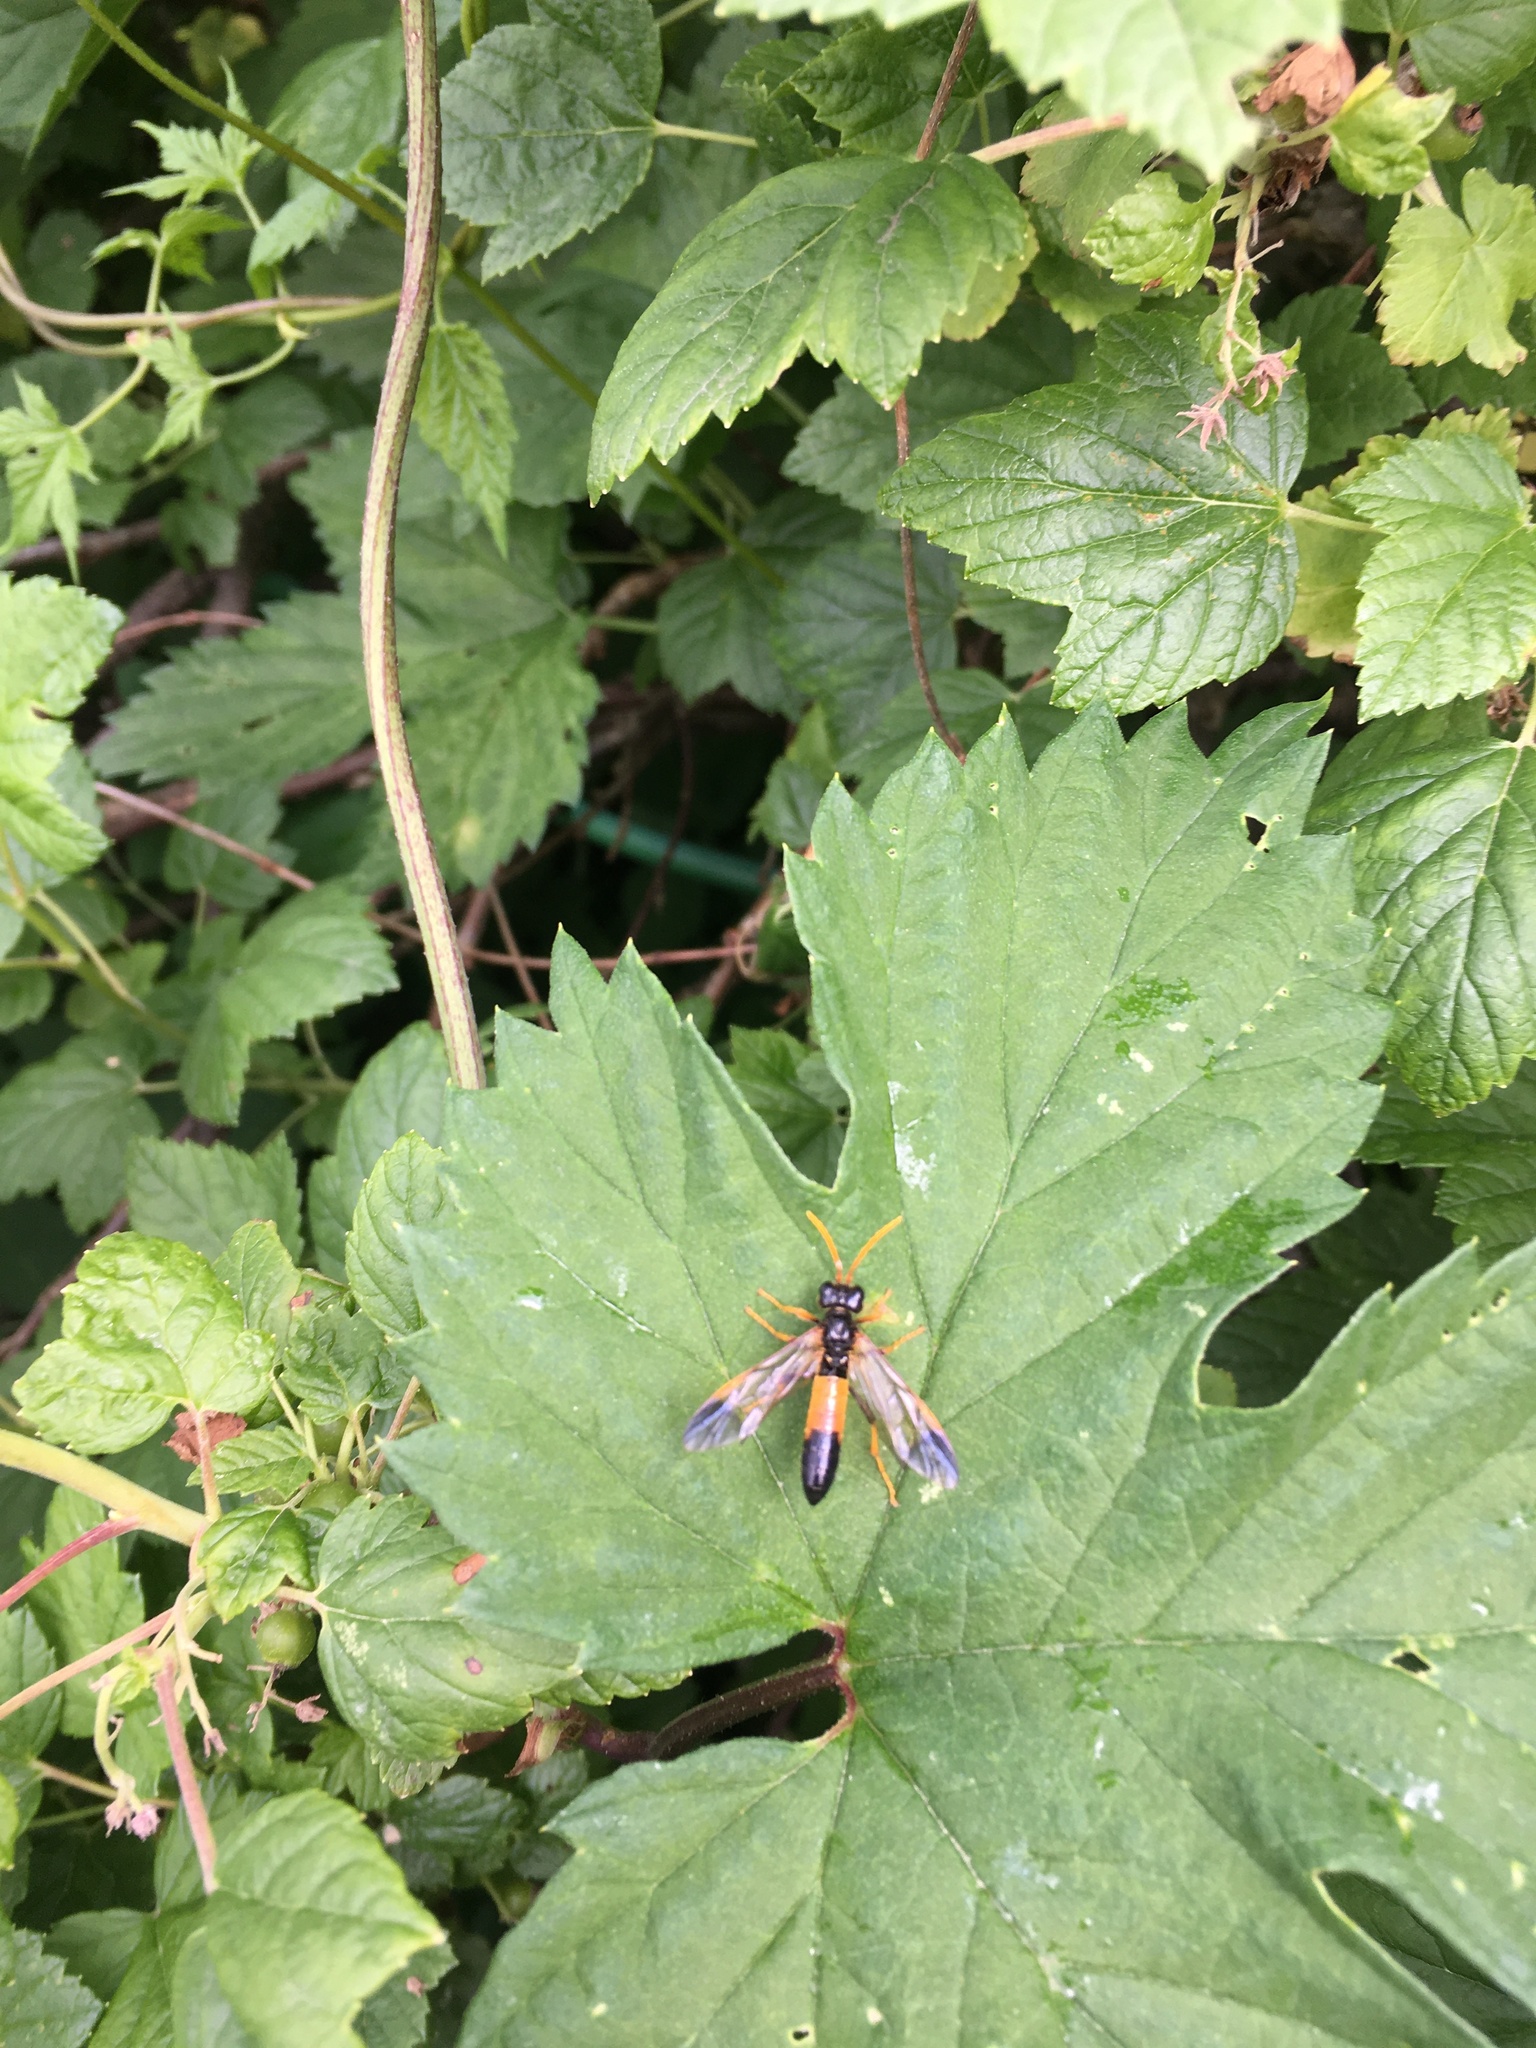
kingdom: Animalia
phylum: Arthropoda
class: Insecta
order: Hymenoptera
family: Tenthredinidae
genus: Tenthredo
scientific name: Tenthredo campestris
